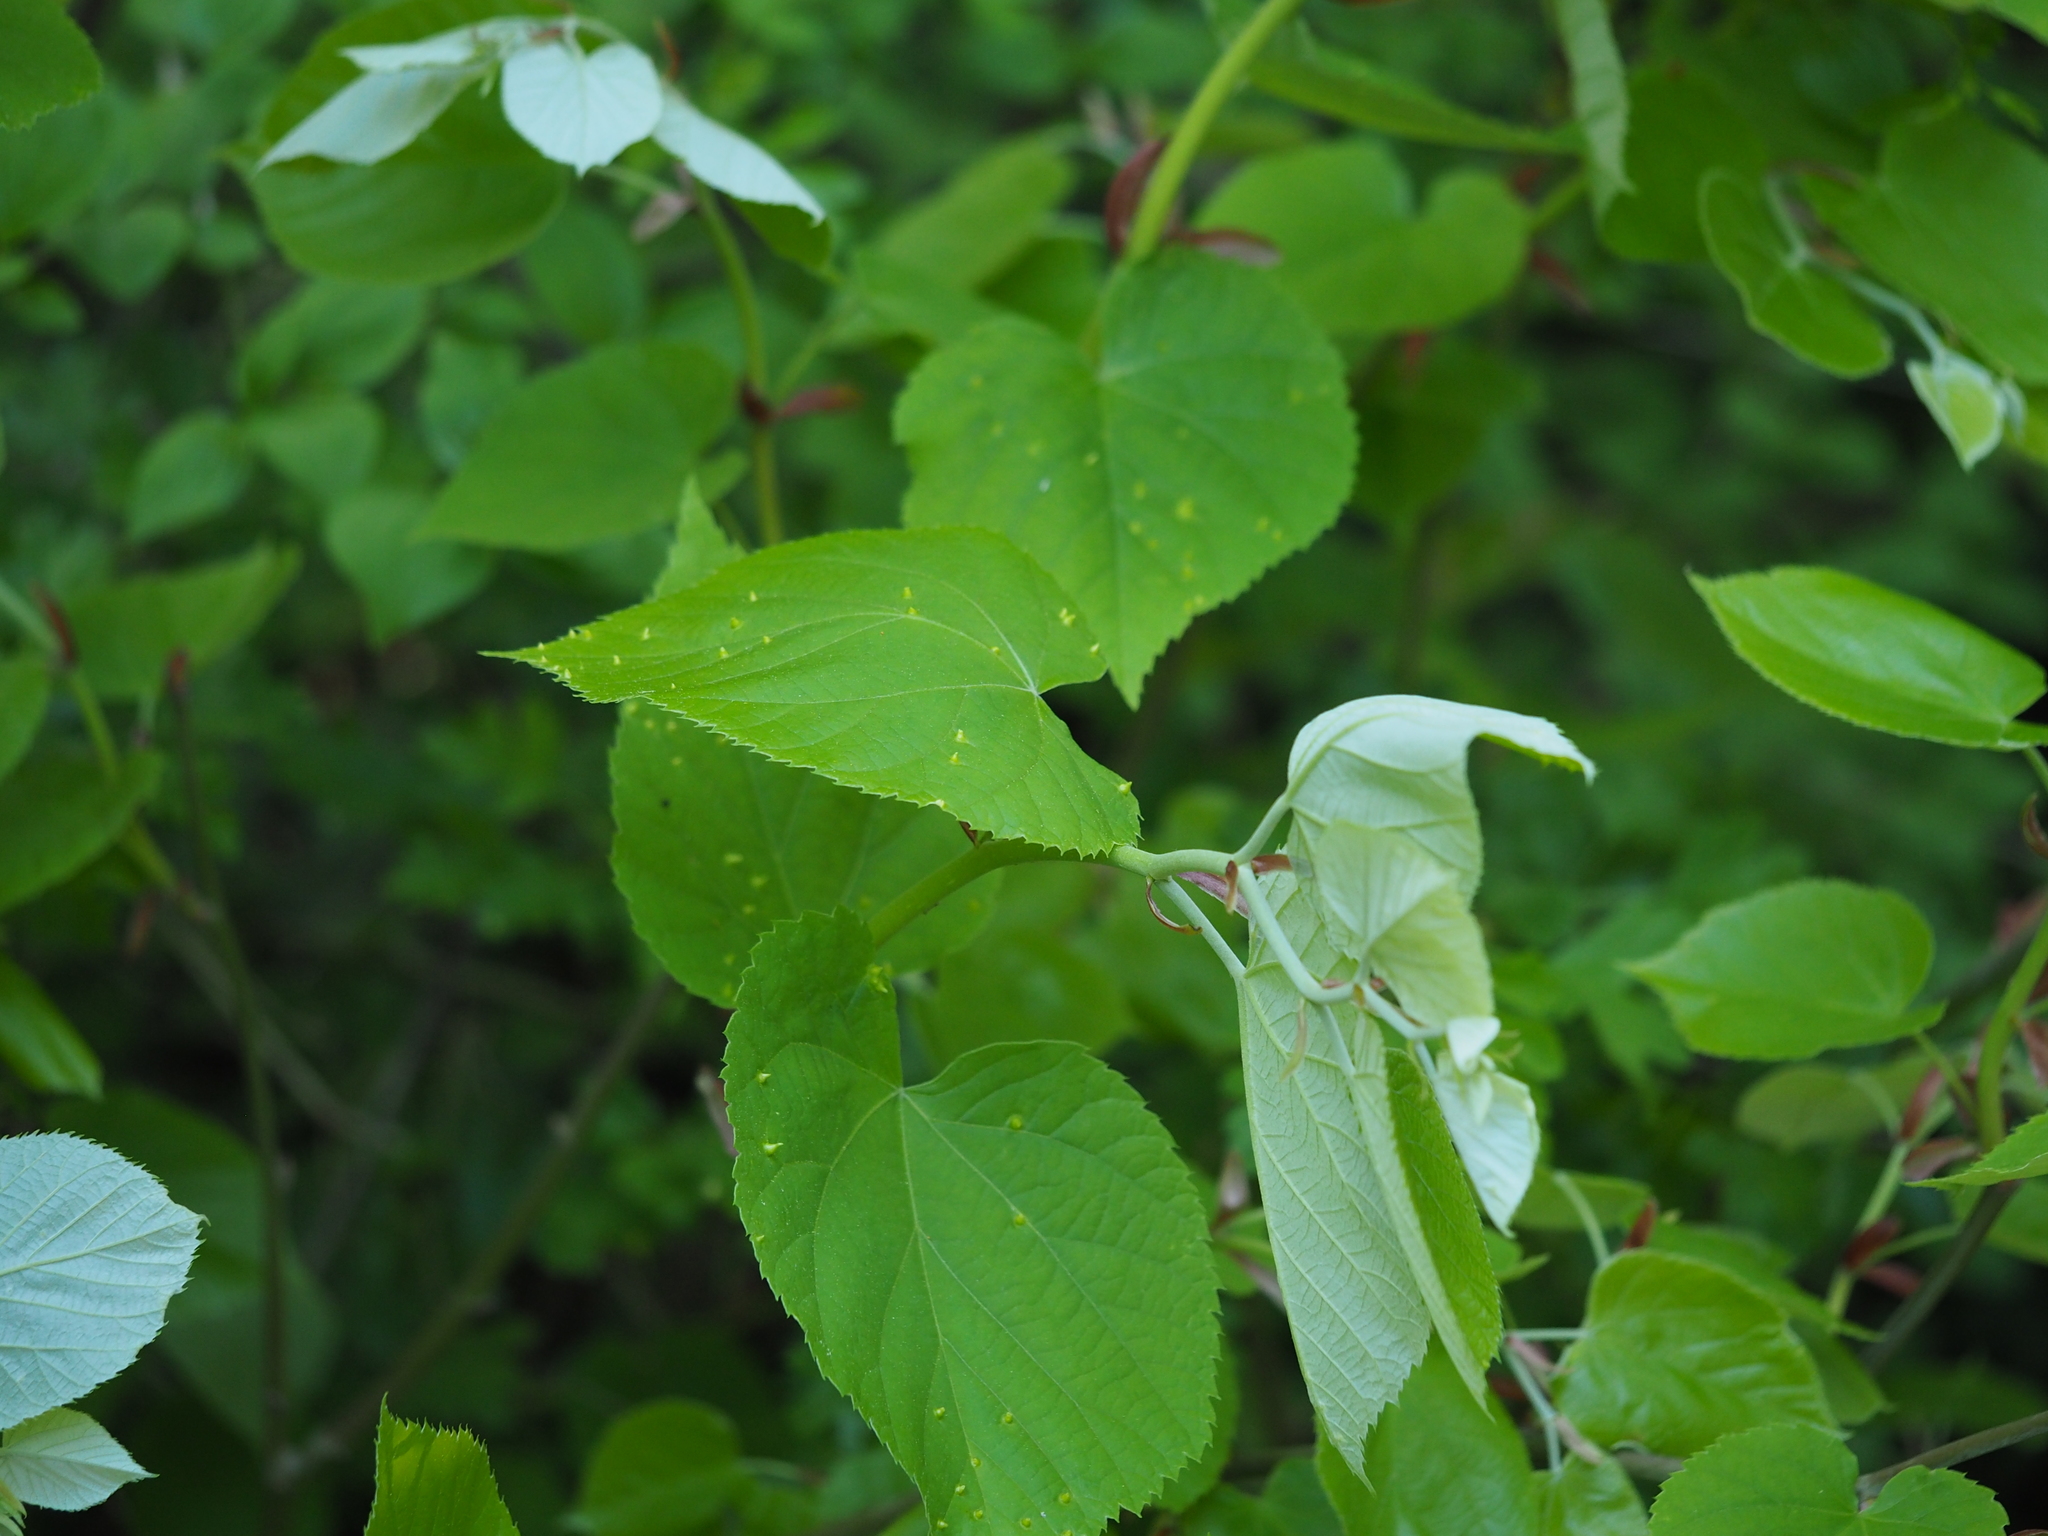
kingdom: Animalia
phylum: Arthropoda
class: Arachnida
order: Trombidiformes
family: Eriophyidae
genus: Eriophyes
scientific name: Eriophyes tiliae
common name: Red nail gall mite
